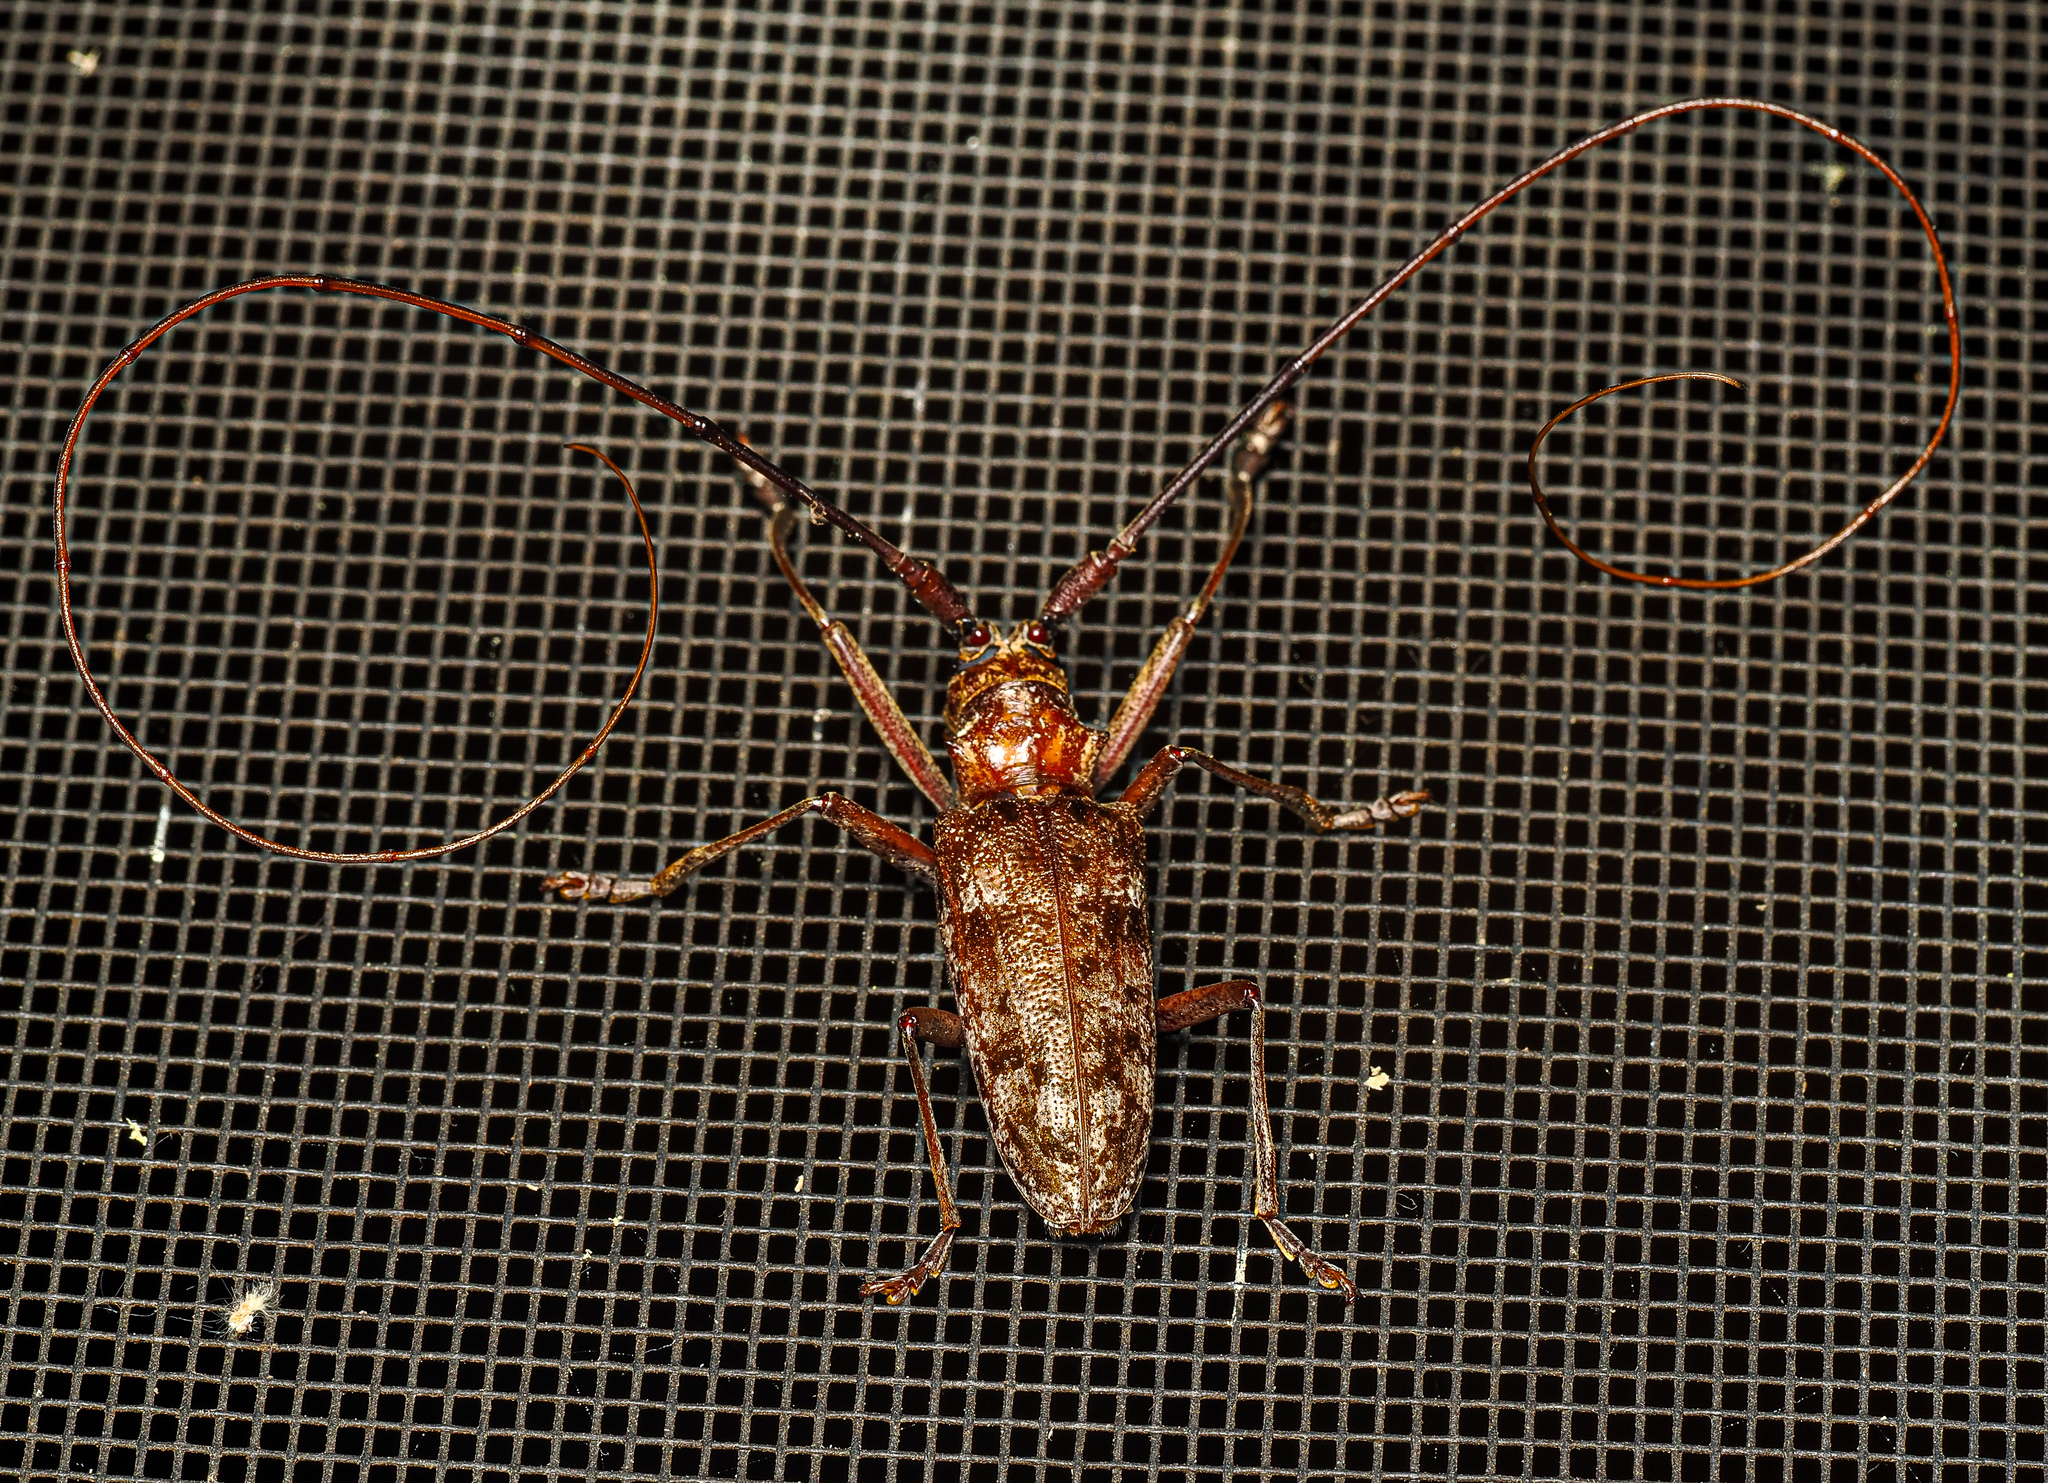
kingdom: Animalia
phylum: Arthropoda
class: Insecta
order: Coleoptera
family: Cerambycidae
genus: Monochamus
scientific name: Monochamus titillator
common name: Southern pine sawyer
